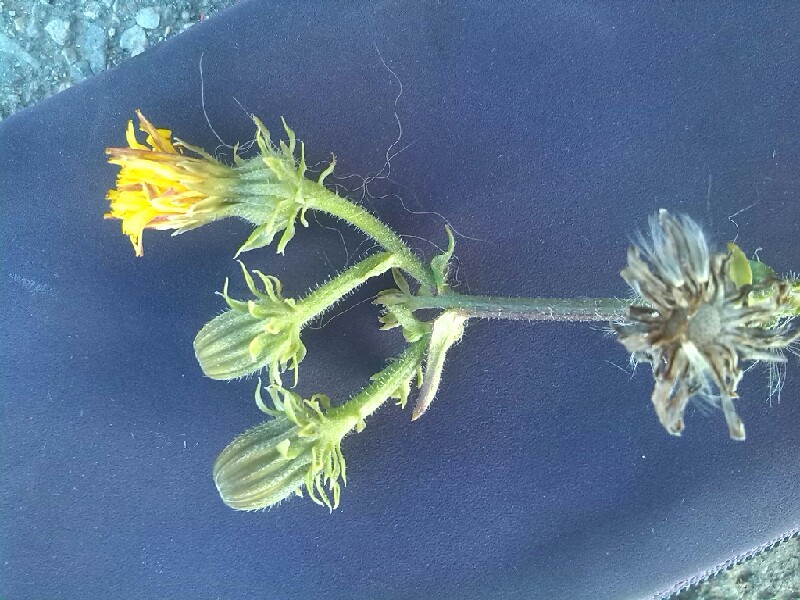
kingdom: Plantae
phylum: Tracheophyta
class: Magnoliopsida
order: Asterales
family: Asteraceae
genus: Picris
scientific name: Picris hieracioides
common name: Hawkweed oxtongue
